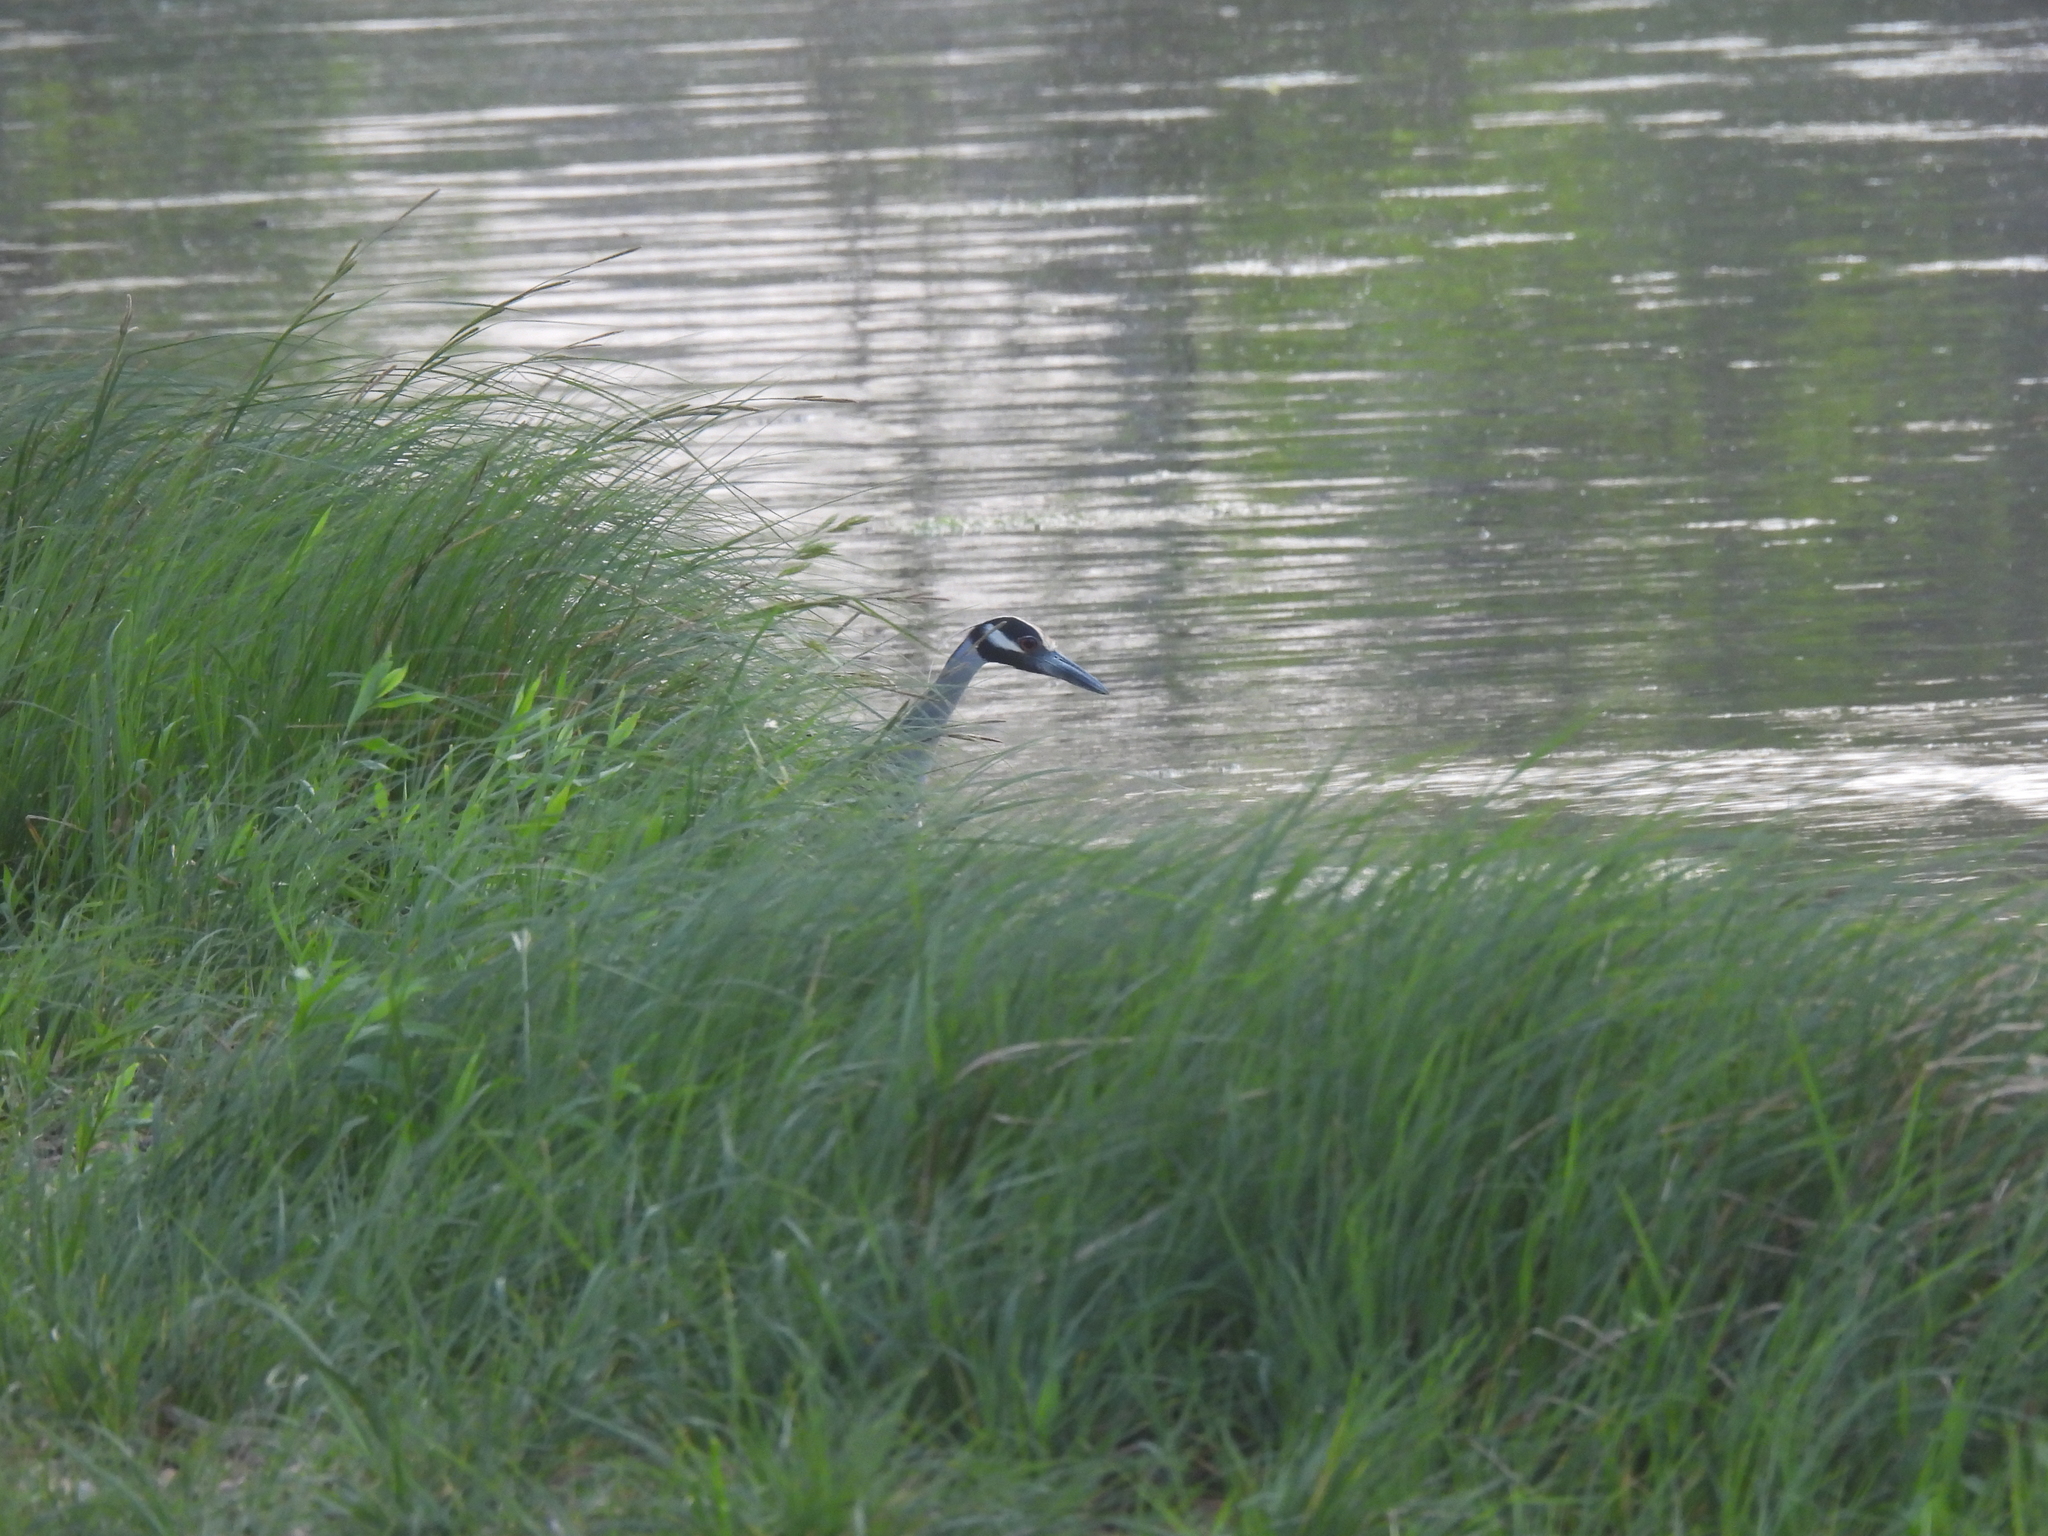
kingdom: Animalia
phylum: Chordata
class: Aves
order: Pelecaniformes
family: Ardeidae
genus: Nyctanassa
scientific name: Nyctanassa violacea
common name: Yellow-crowned night heron
